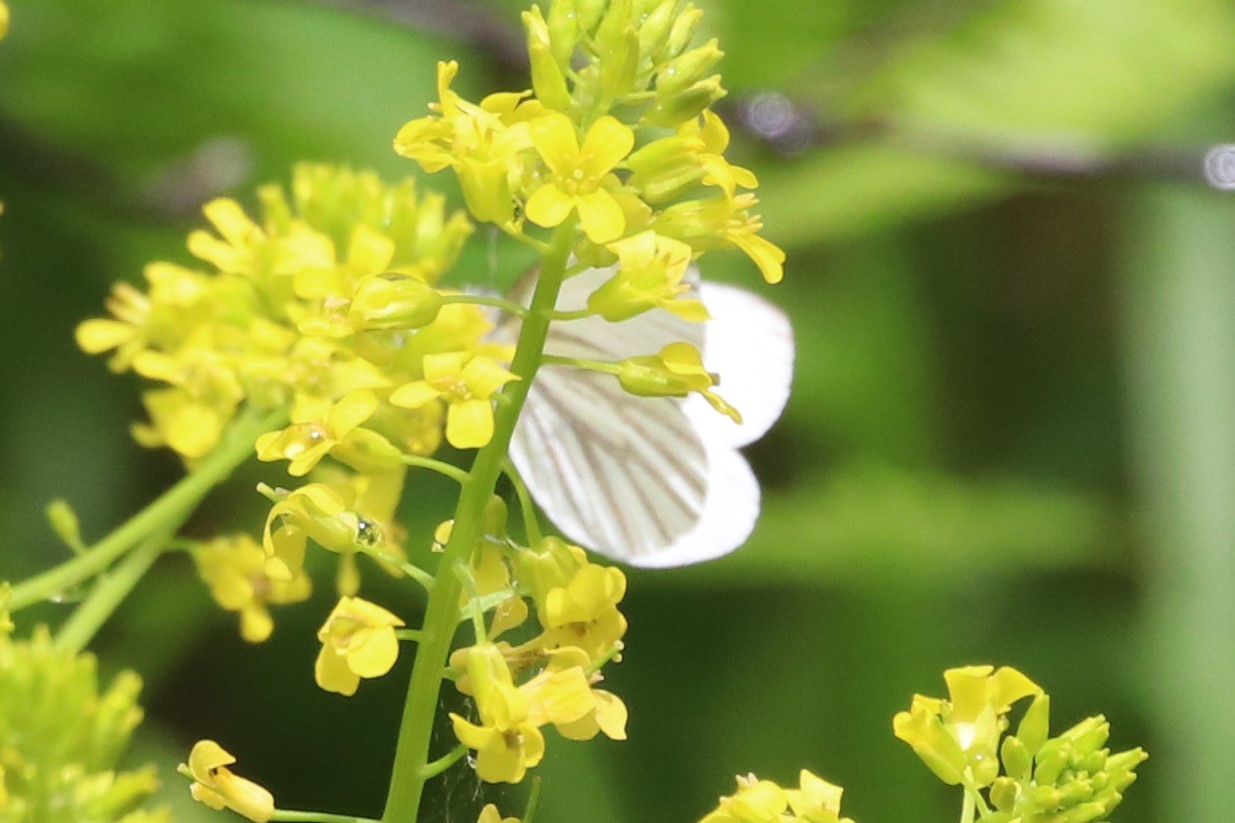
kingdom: Animalia
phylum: Arthropoda
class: Insecta
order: Lepidoptera
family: Pieridae
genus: Pieris
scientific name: Pieris oleracea
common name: Mustard white
